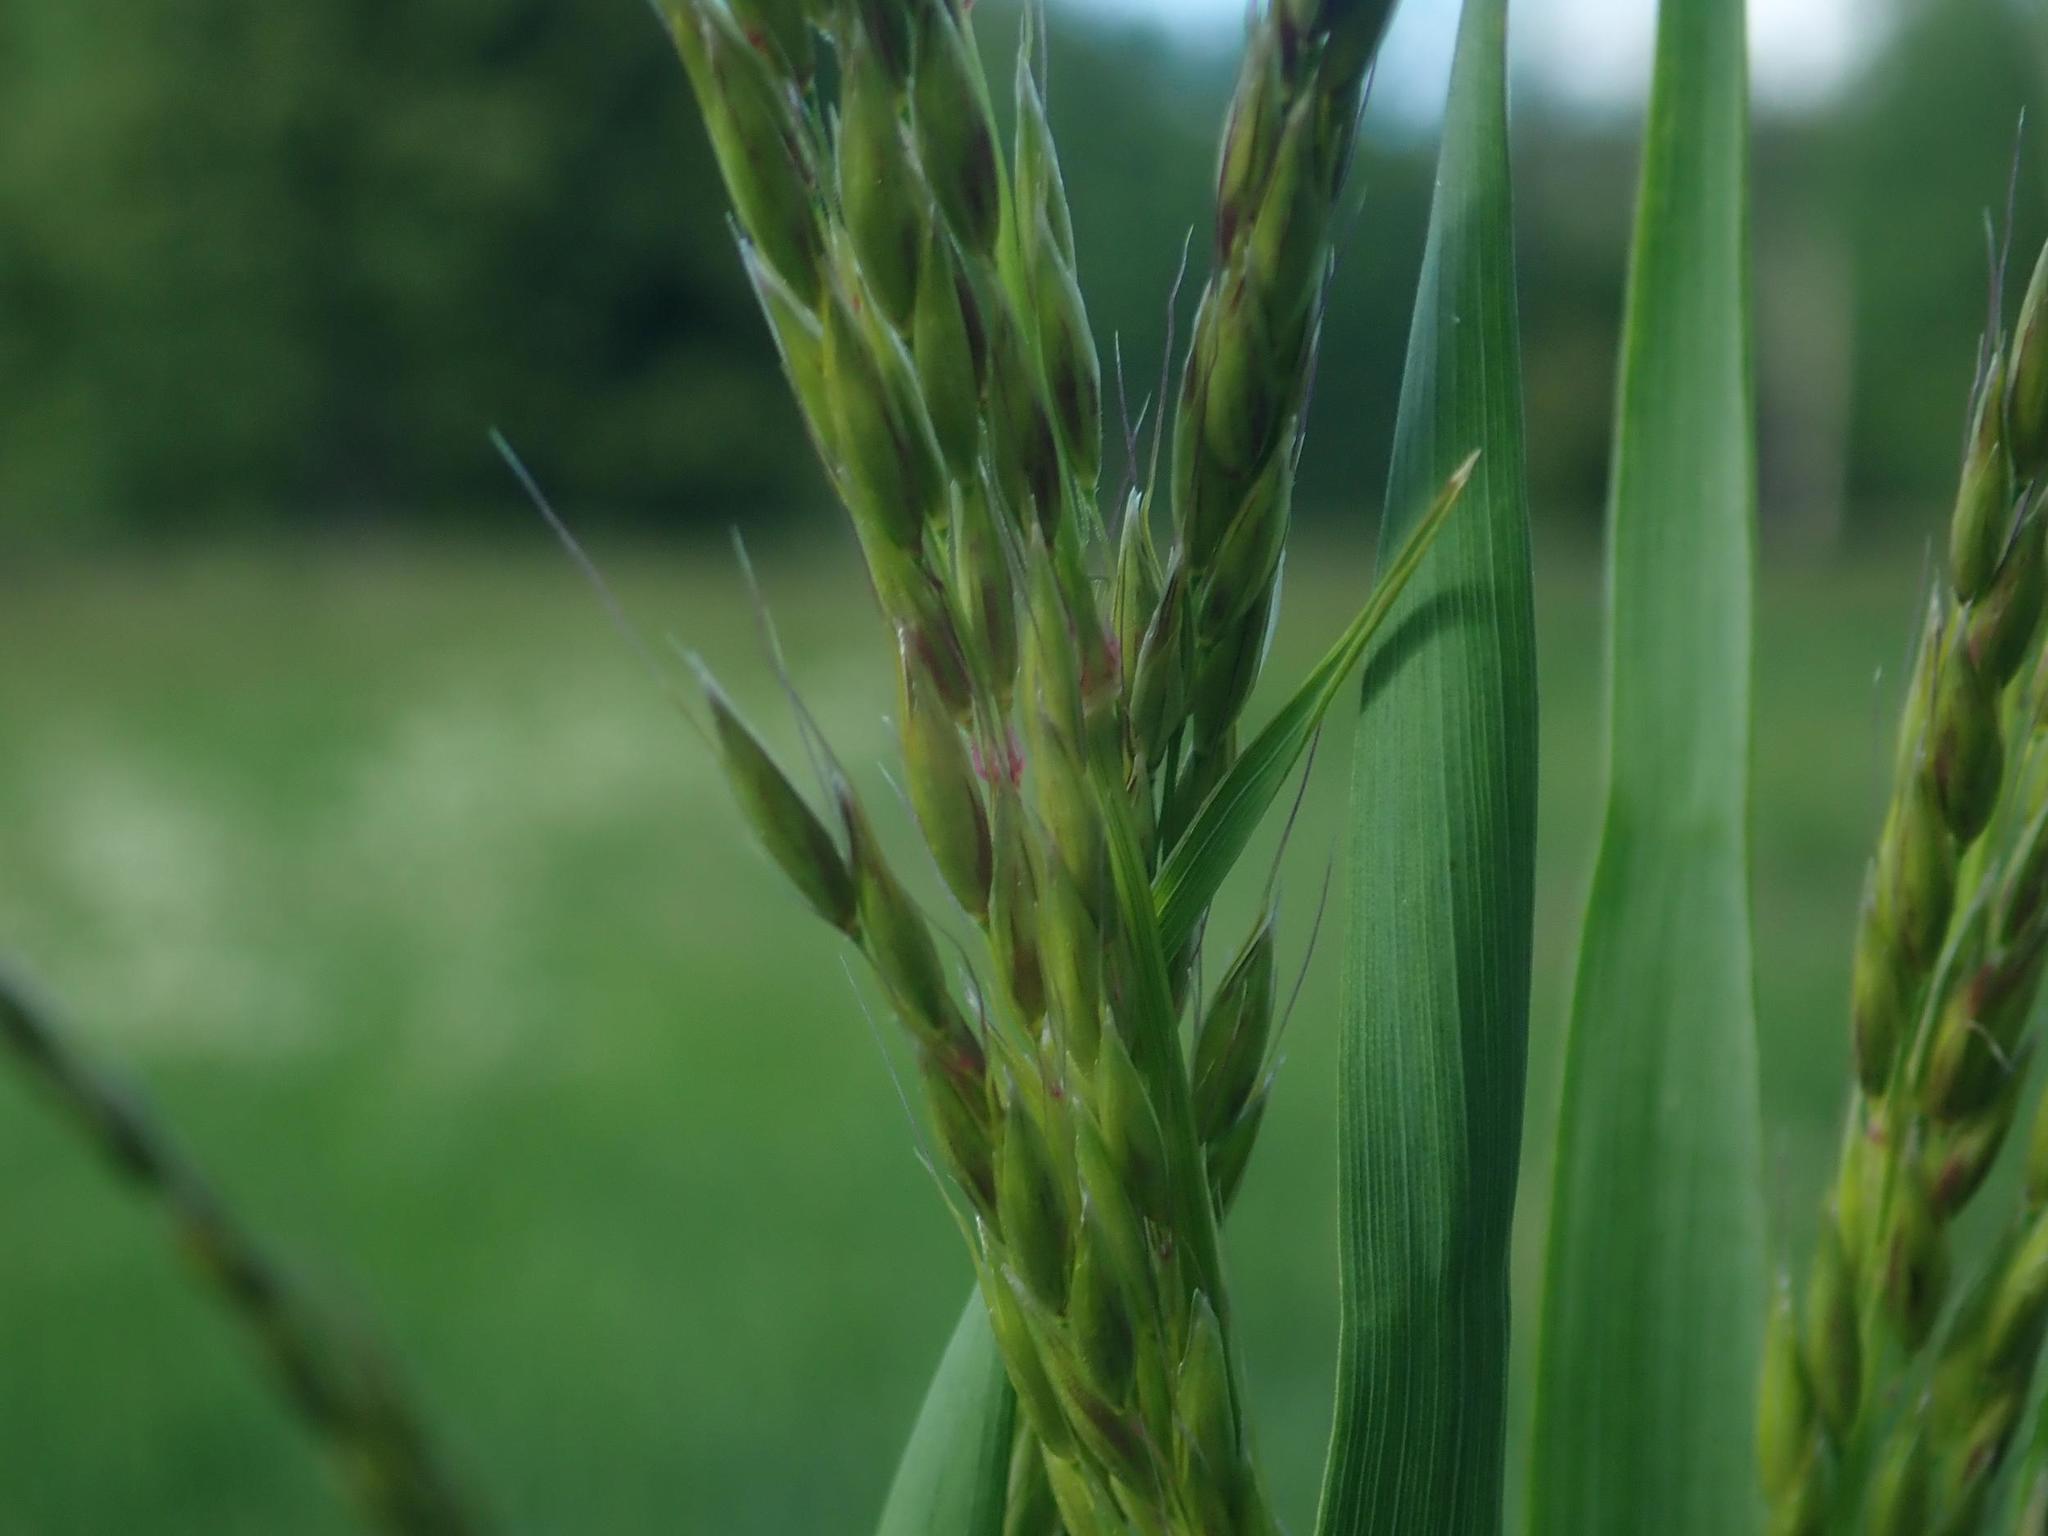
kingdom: Plantae
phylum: Tracheophyta
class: Liliopsida
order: Poales
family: Poaceae
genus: Arrhenatherum
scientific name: Arrhenatherum elatius
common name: Tall oatgrass
